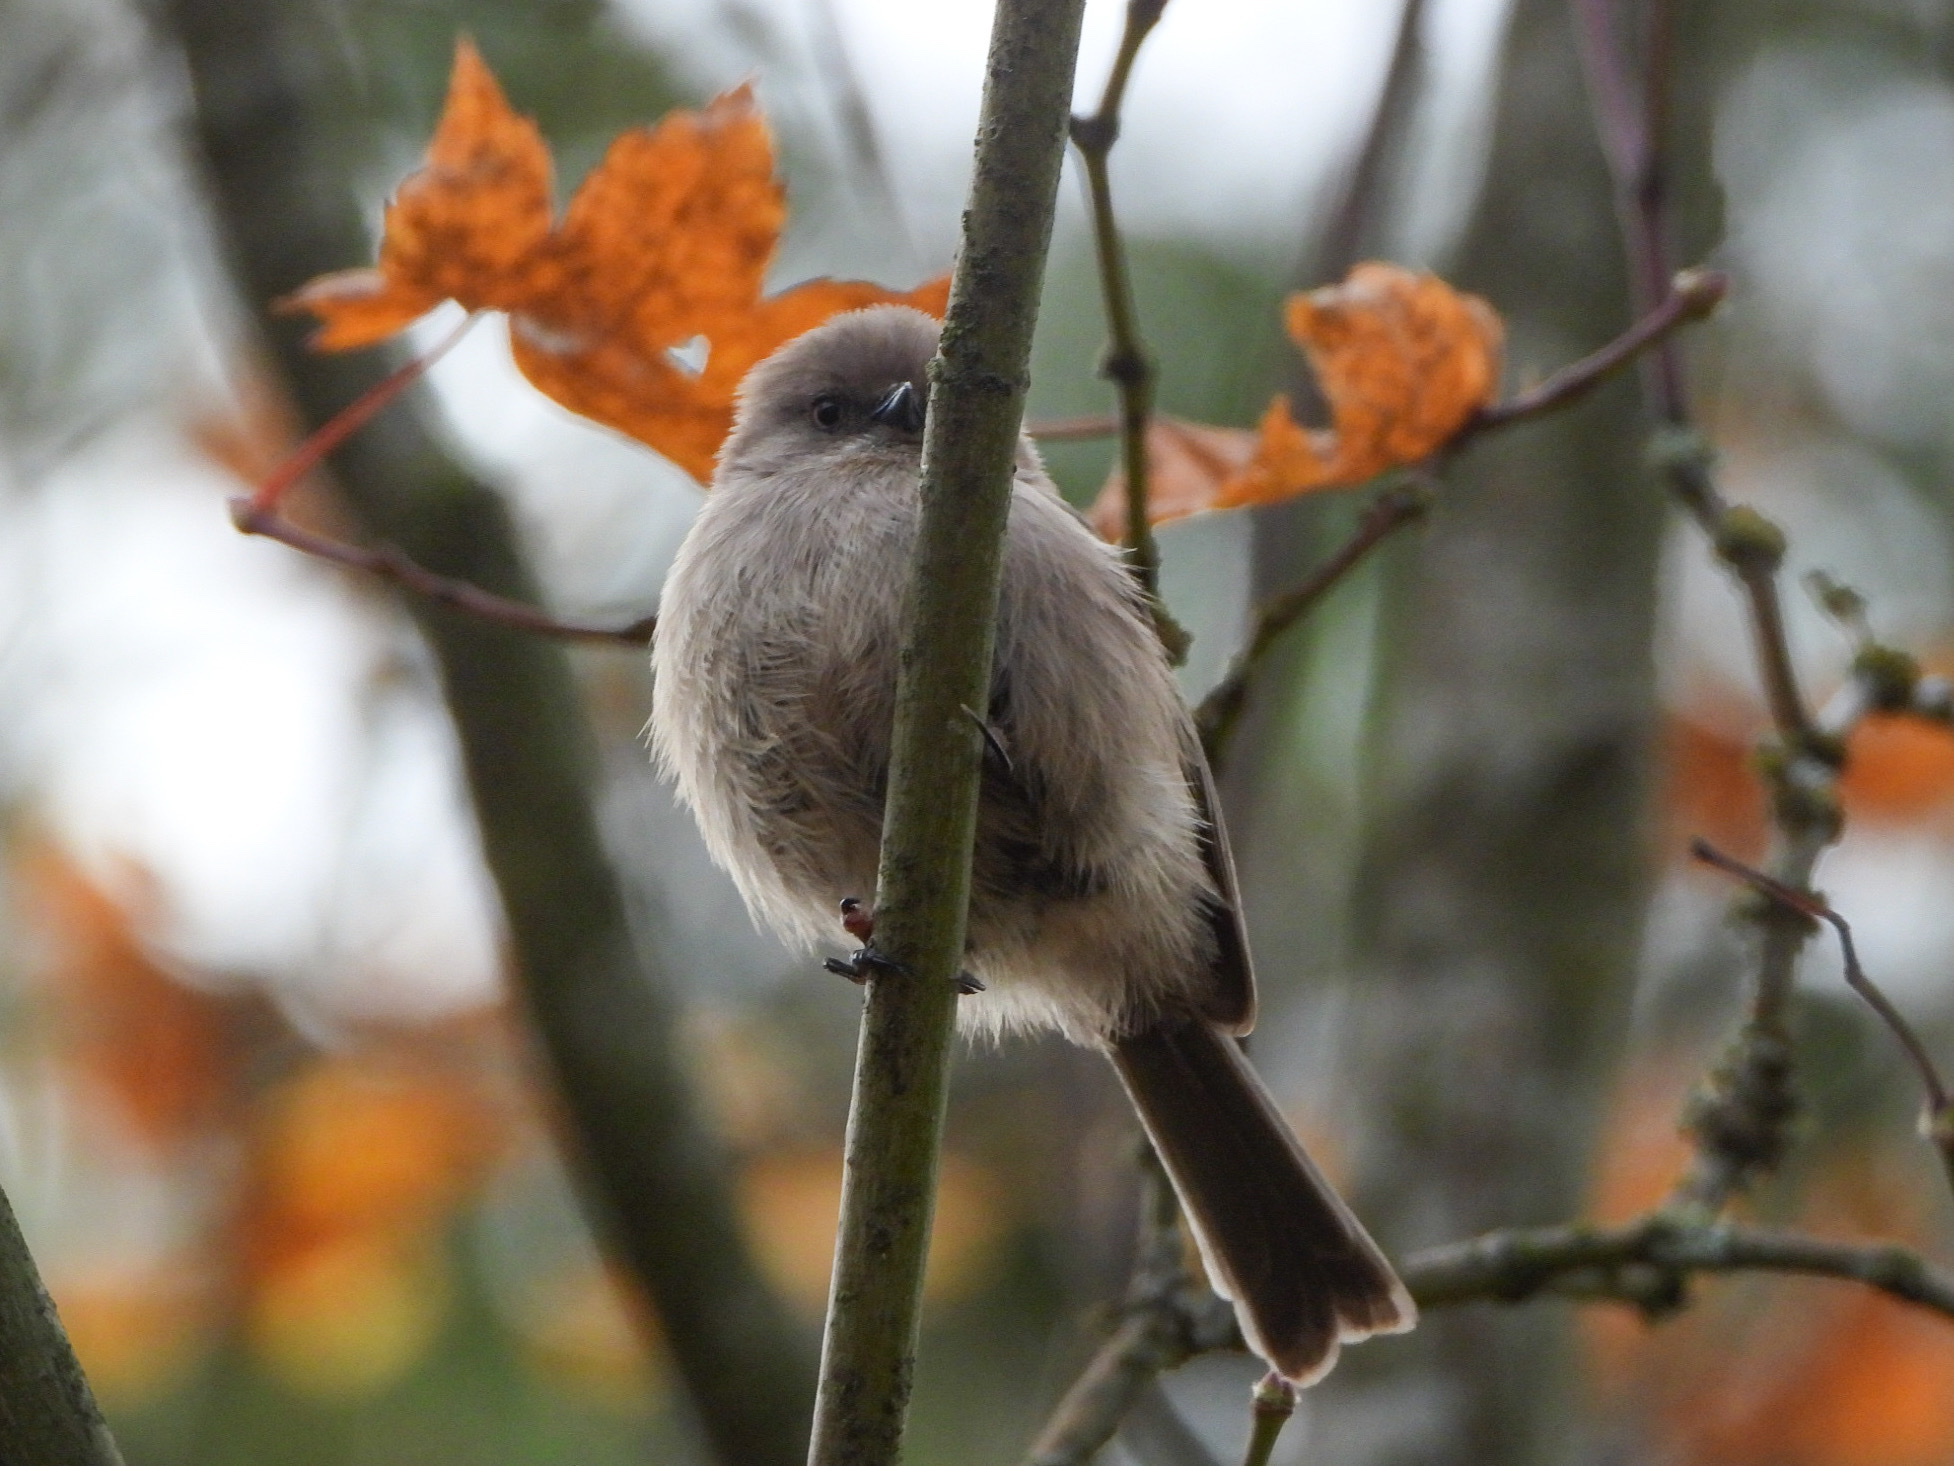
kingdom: Animalia
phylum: Chordata
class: Aves
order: Passeriformes
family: Aegithalidae
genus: Psaltriparus
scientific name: Psaltriparus minimus
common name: American bushtit
